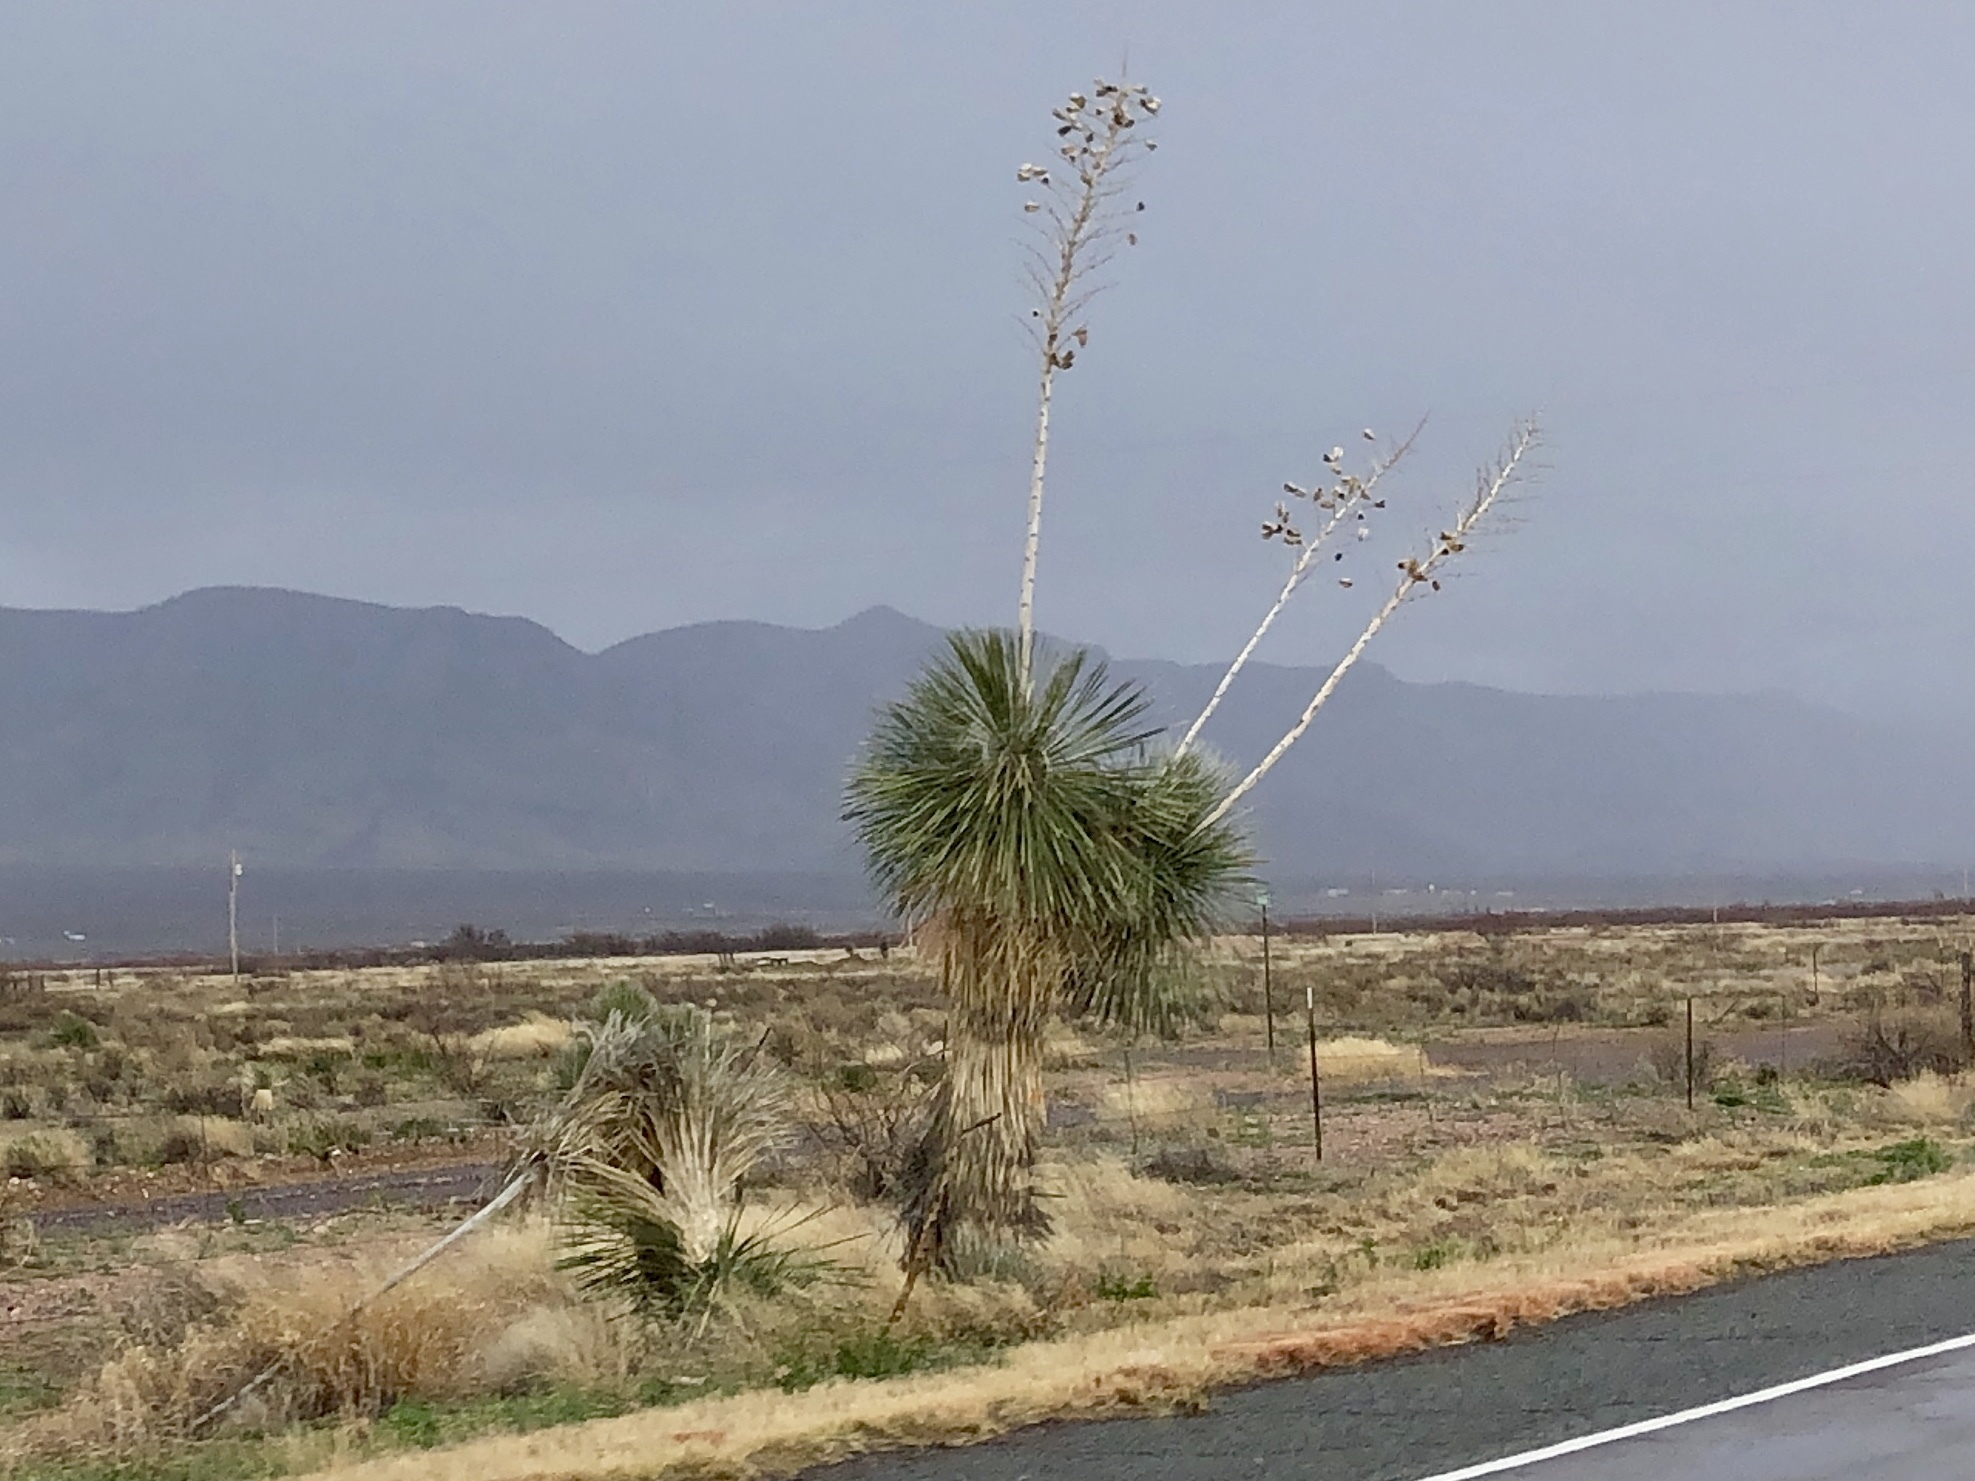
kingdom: Plantae
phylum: Tracheophyta
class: Liliopsida
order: Asparagales
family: Asparagaceae
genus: Yucca
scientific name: Yucca elata
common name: Palmella
